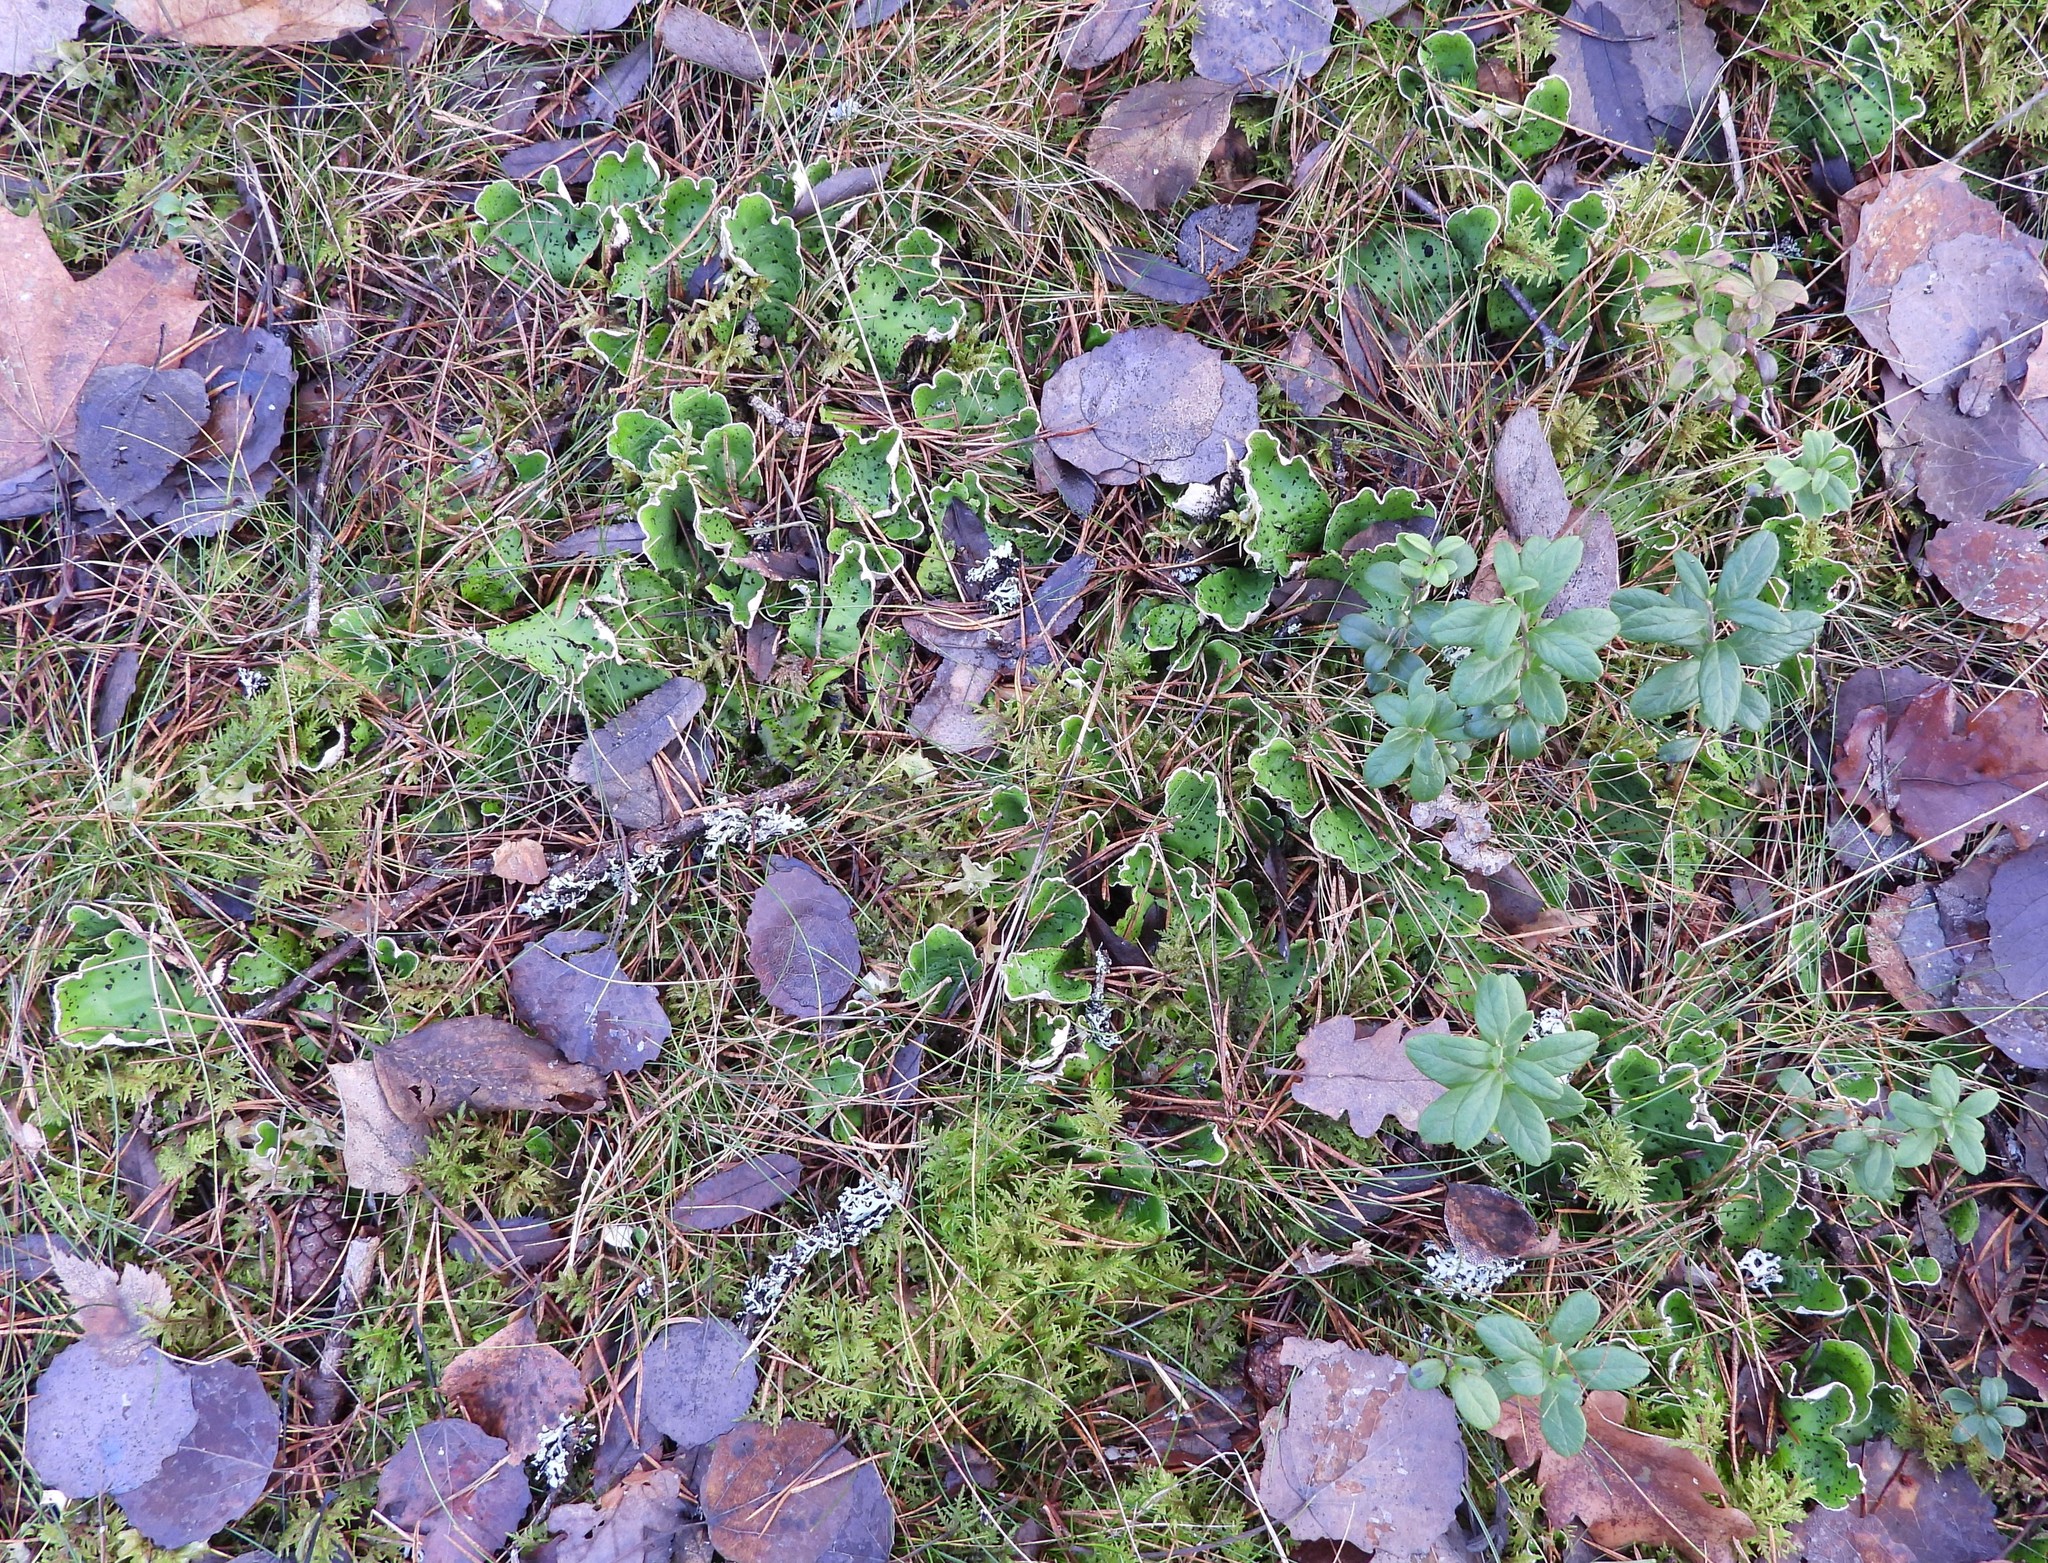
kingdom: Fungi
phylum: Ascomycota
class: Lecanoromycetes
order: Peltigerales
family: Peltigeraceae
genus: Peltigera
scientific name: Peltigera aphthosa
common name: Common freckle pelt lichen
